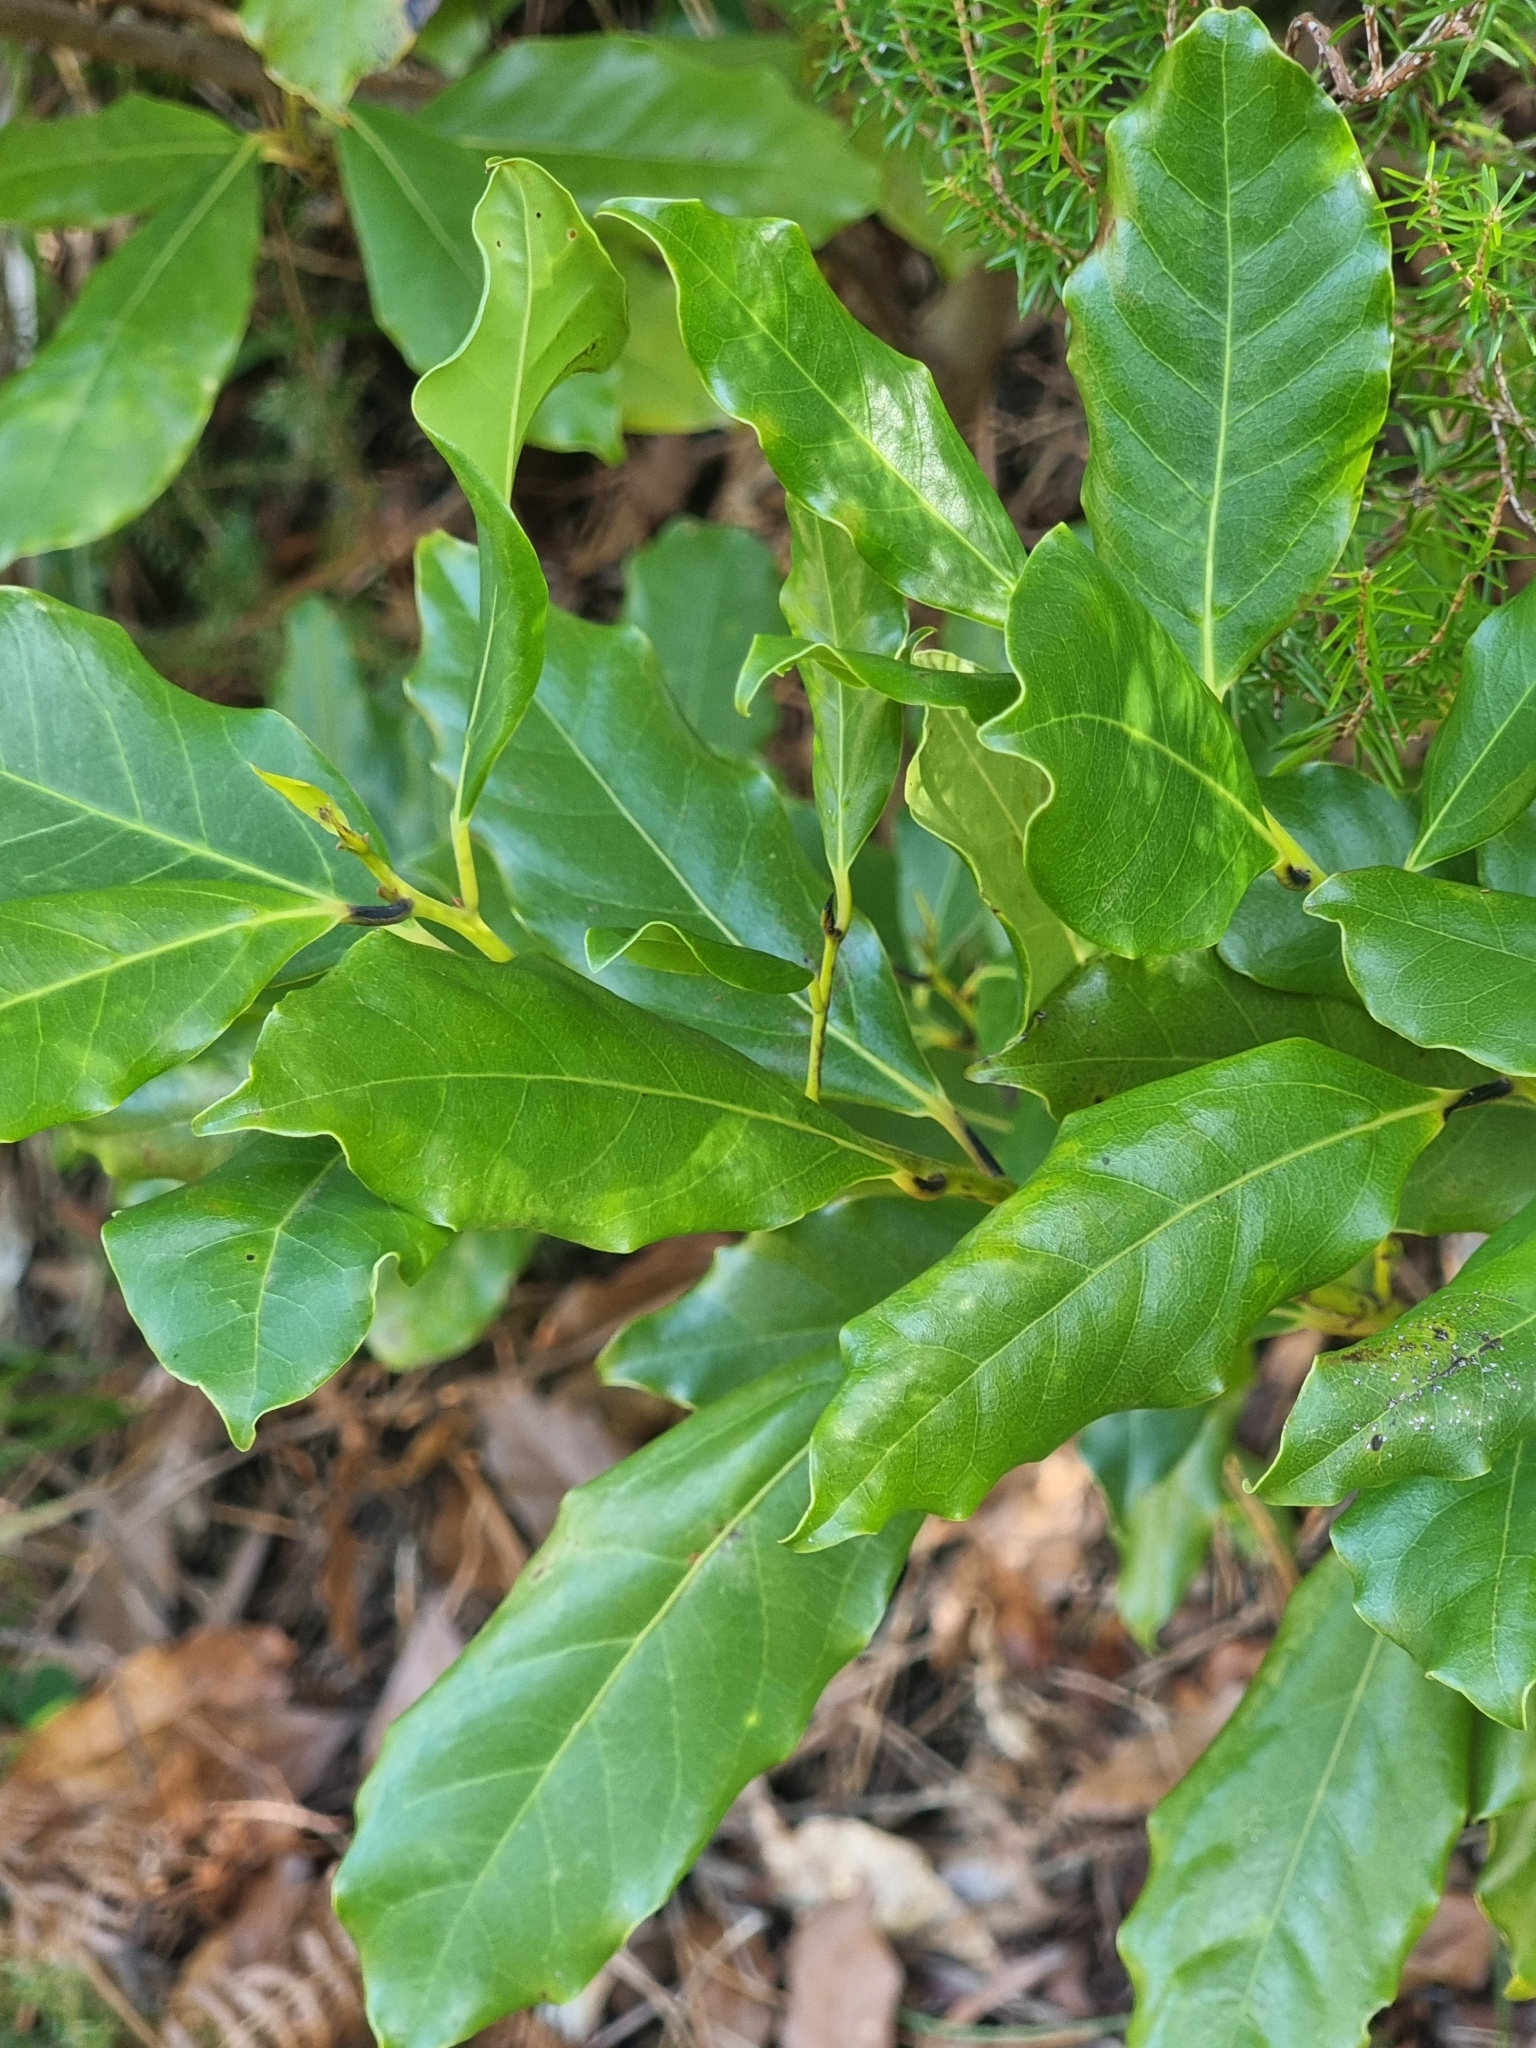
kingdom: Plantae
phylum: Tracheophyta
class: Magnoliopsida
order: Laurales
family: Lauraceae
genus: Mespilodaphne
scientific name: Mespilodaphne foetens
